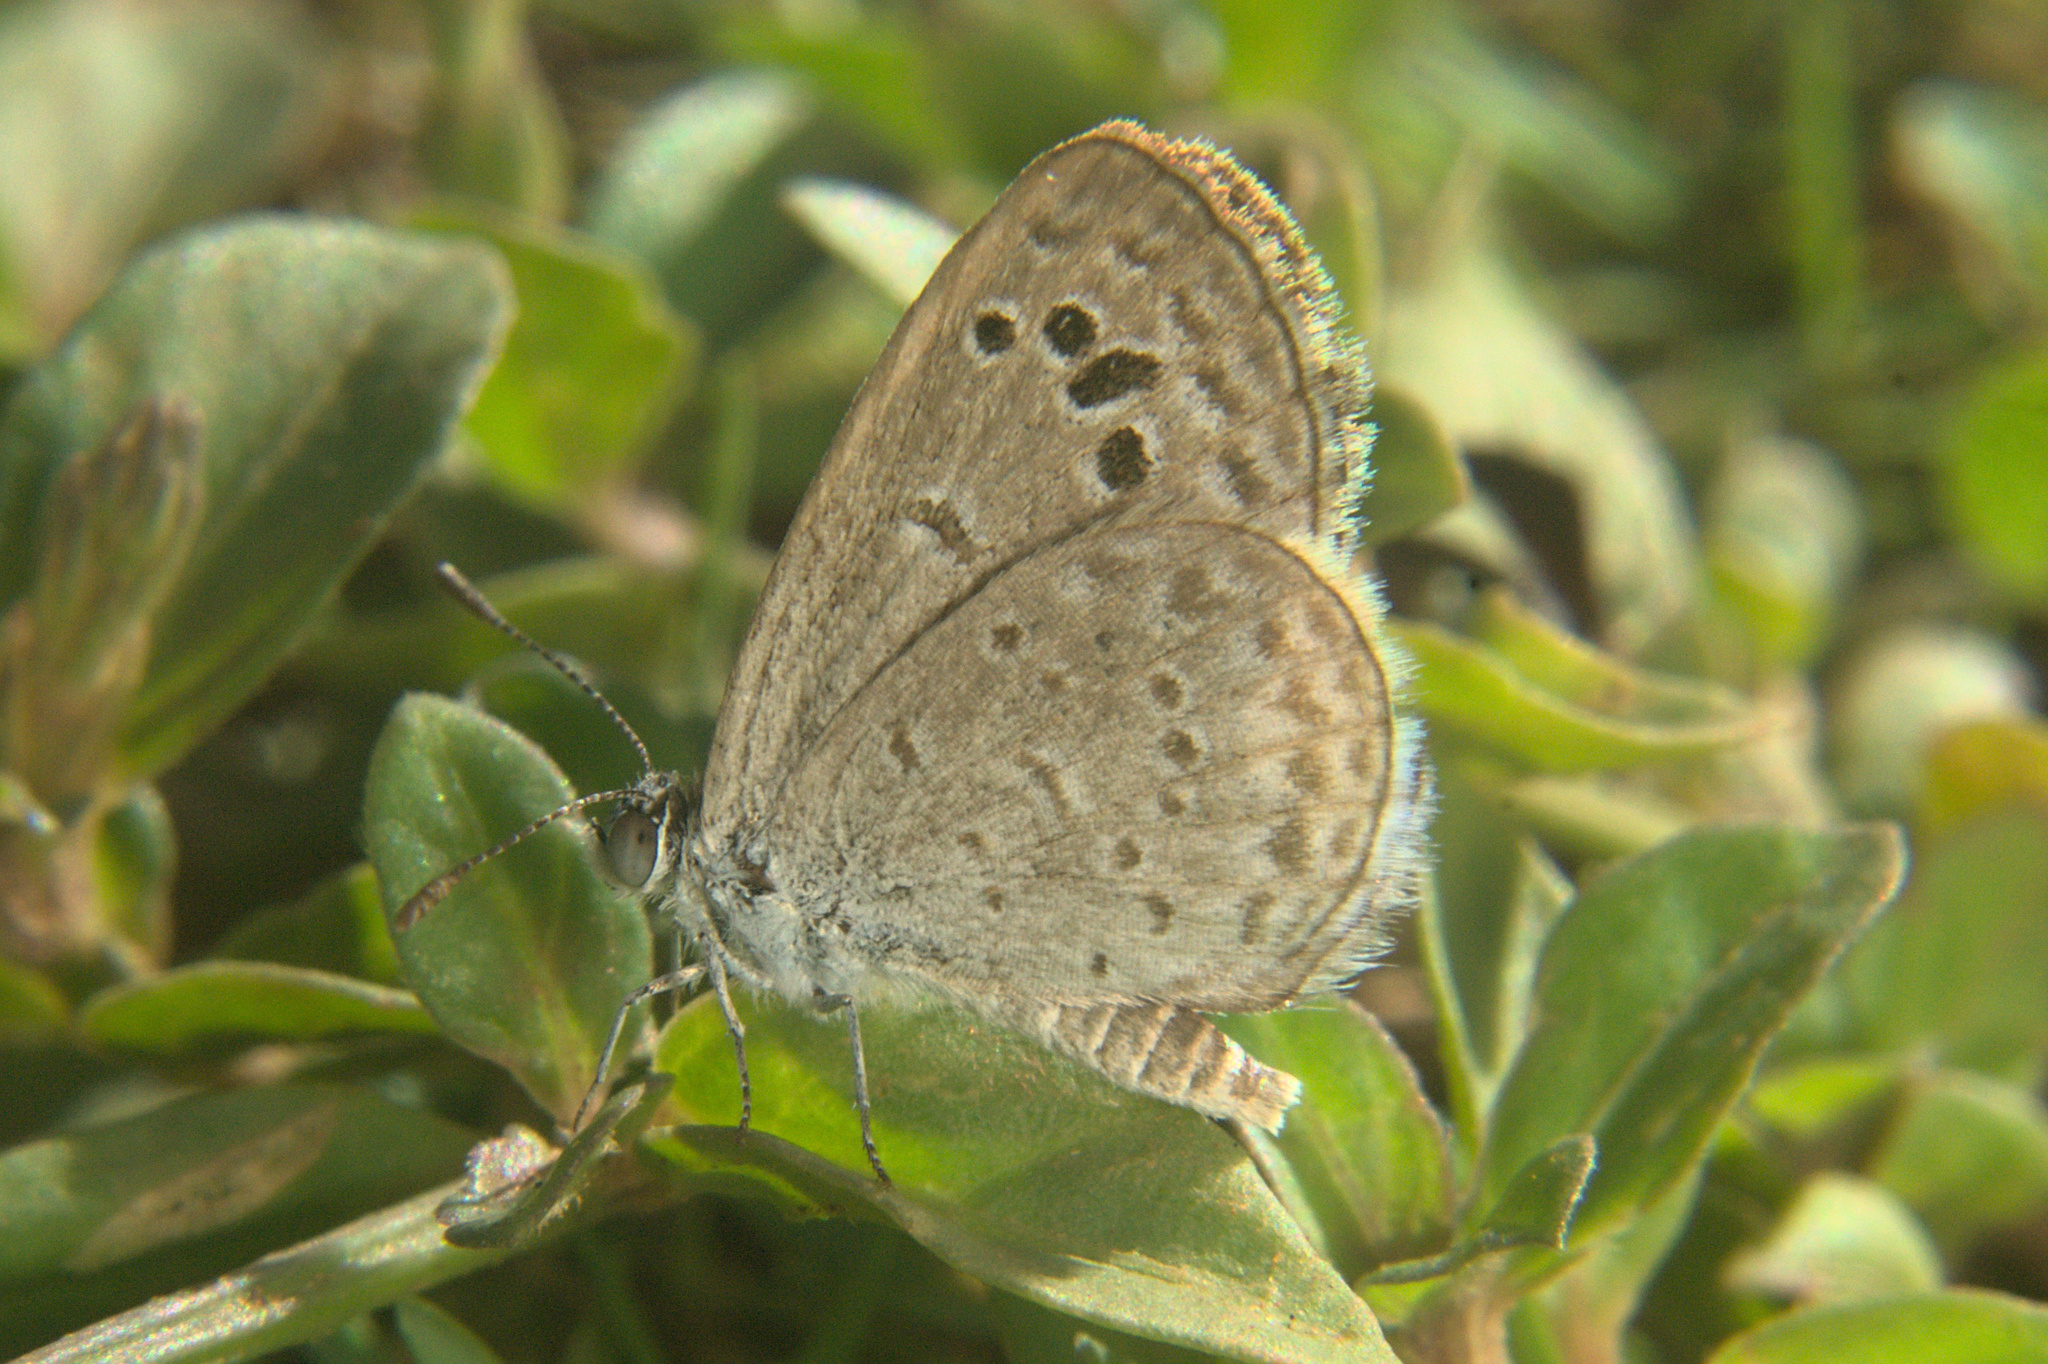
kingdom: Animalia
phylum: Arthropoda
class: Insecta
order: Lepidoptera
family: Lycaenidae
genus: Zizeeria
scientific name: Zizeeria karsandra
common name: Dark grass blue
